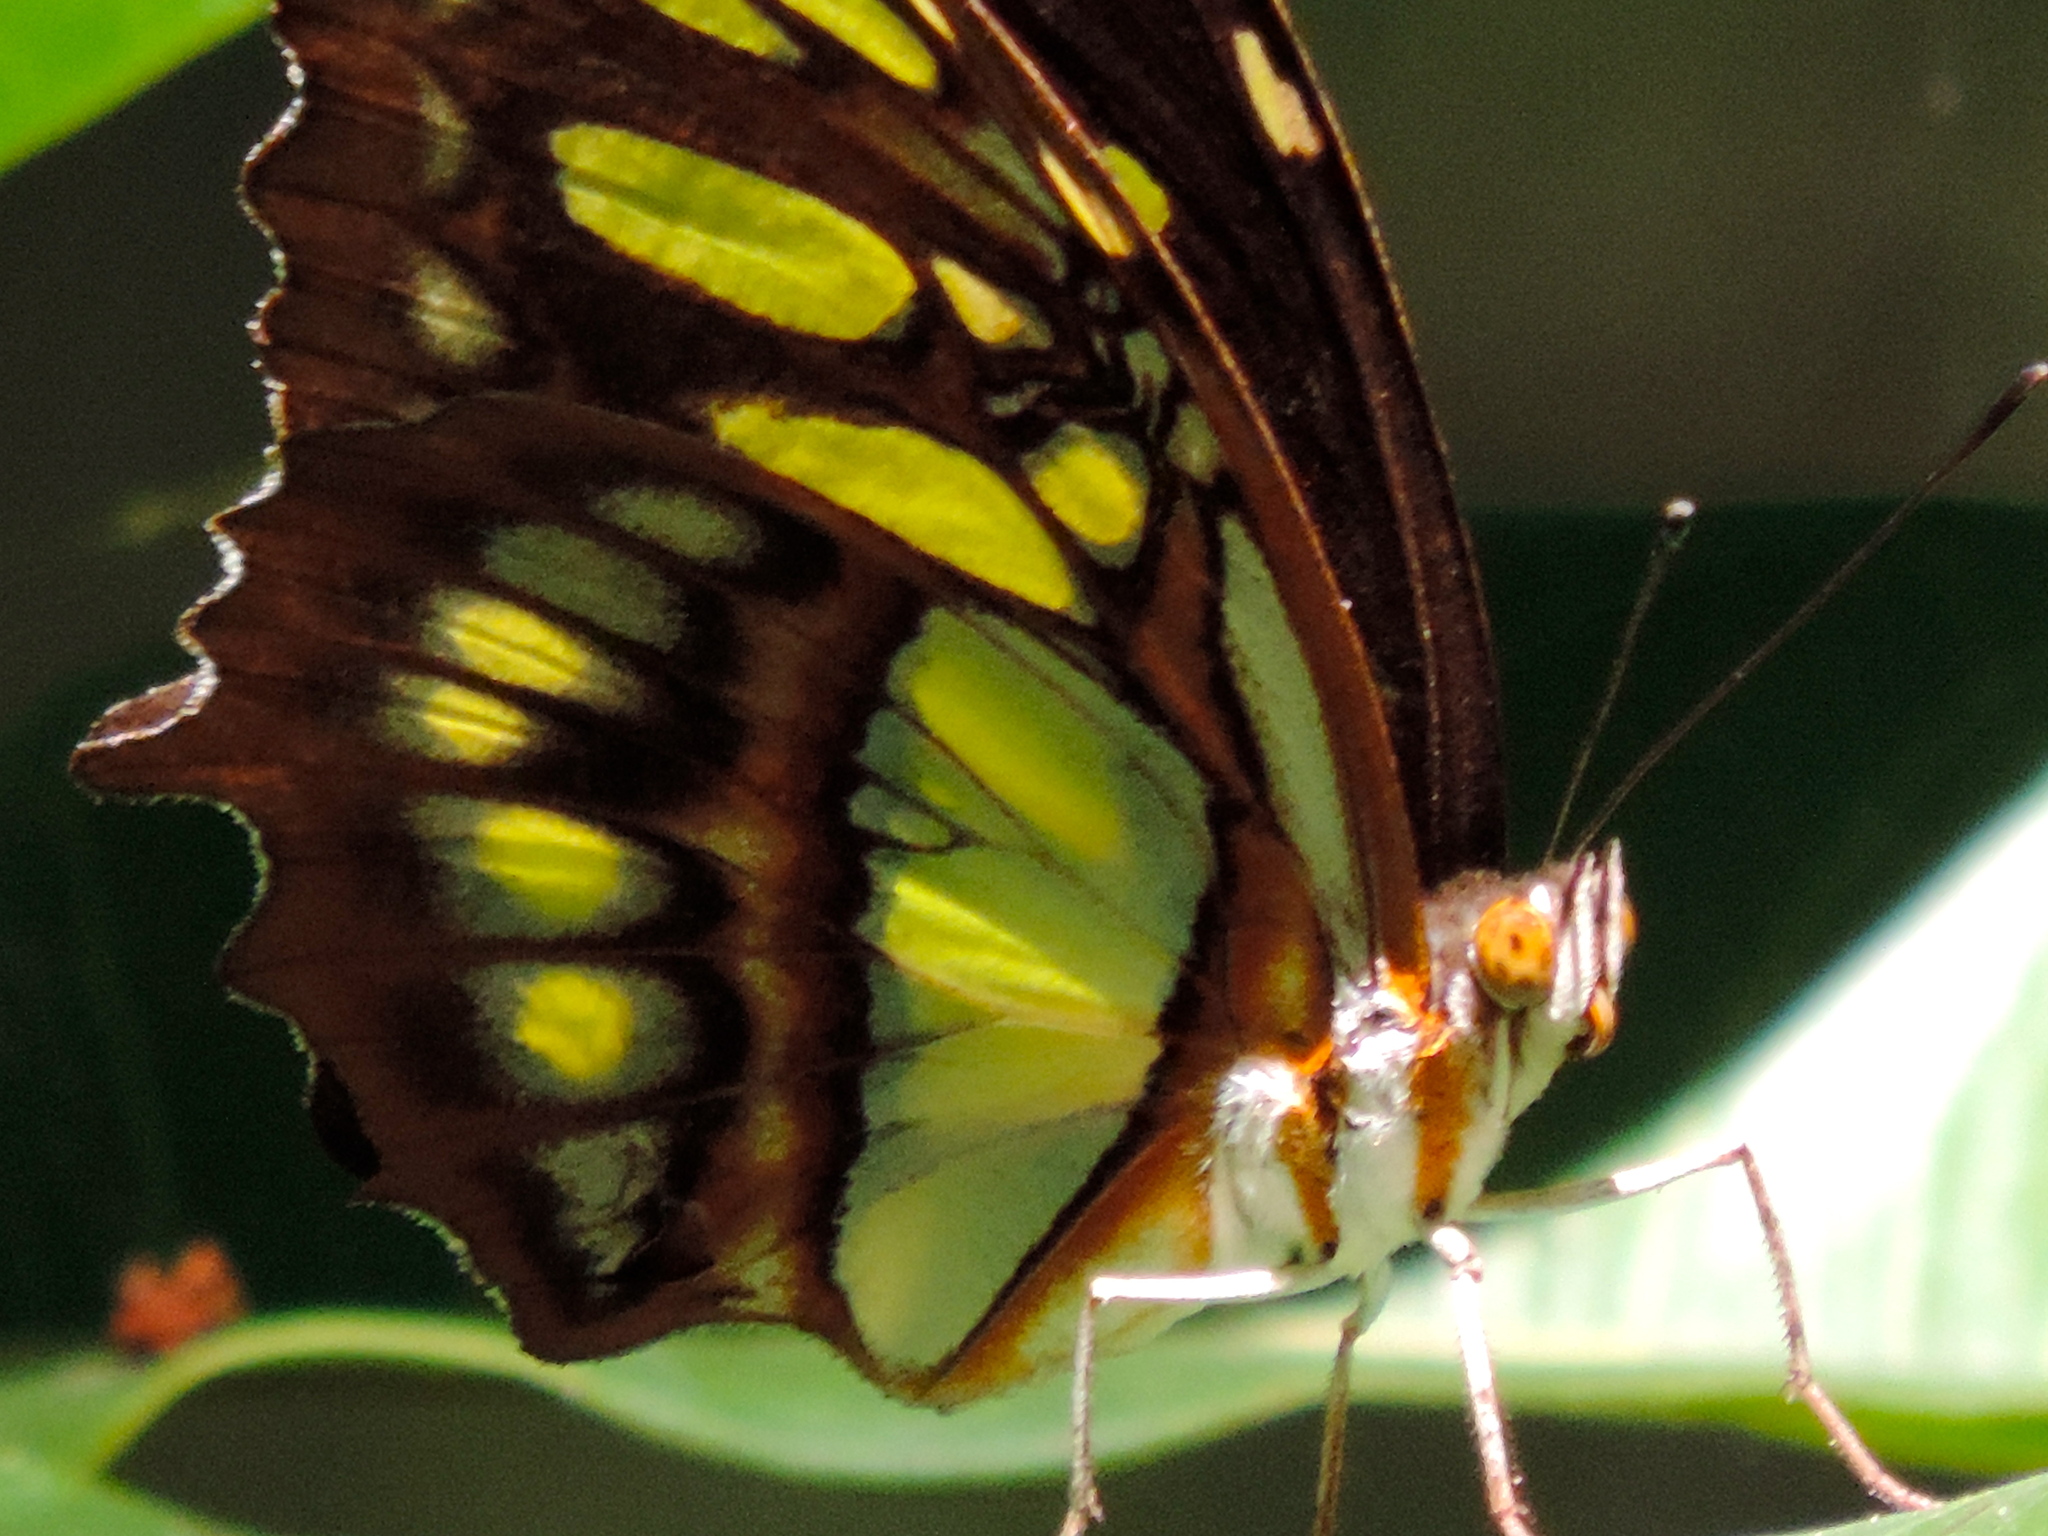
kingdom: Animalia
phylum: Arthropoda
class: Insecta
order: Lepidoptera
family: Nymphalidae
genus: Siproeta
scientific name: Siproeta stelenes
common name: Malachite
